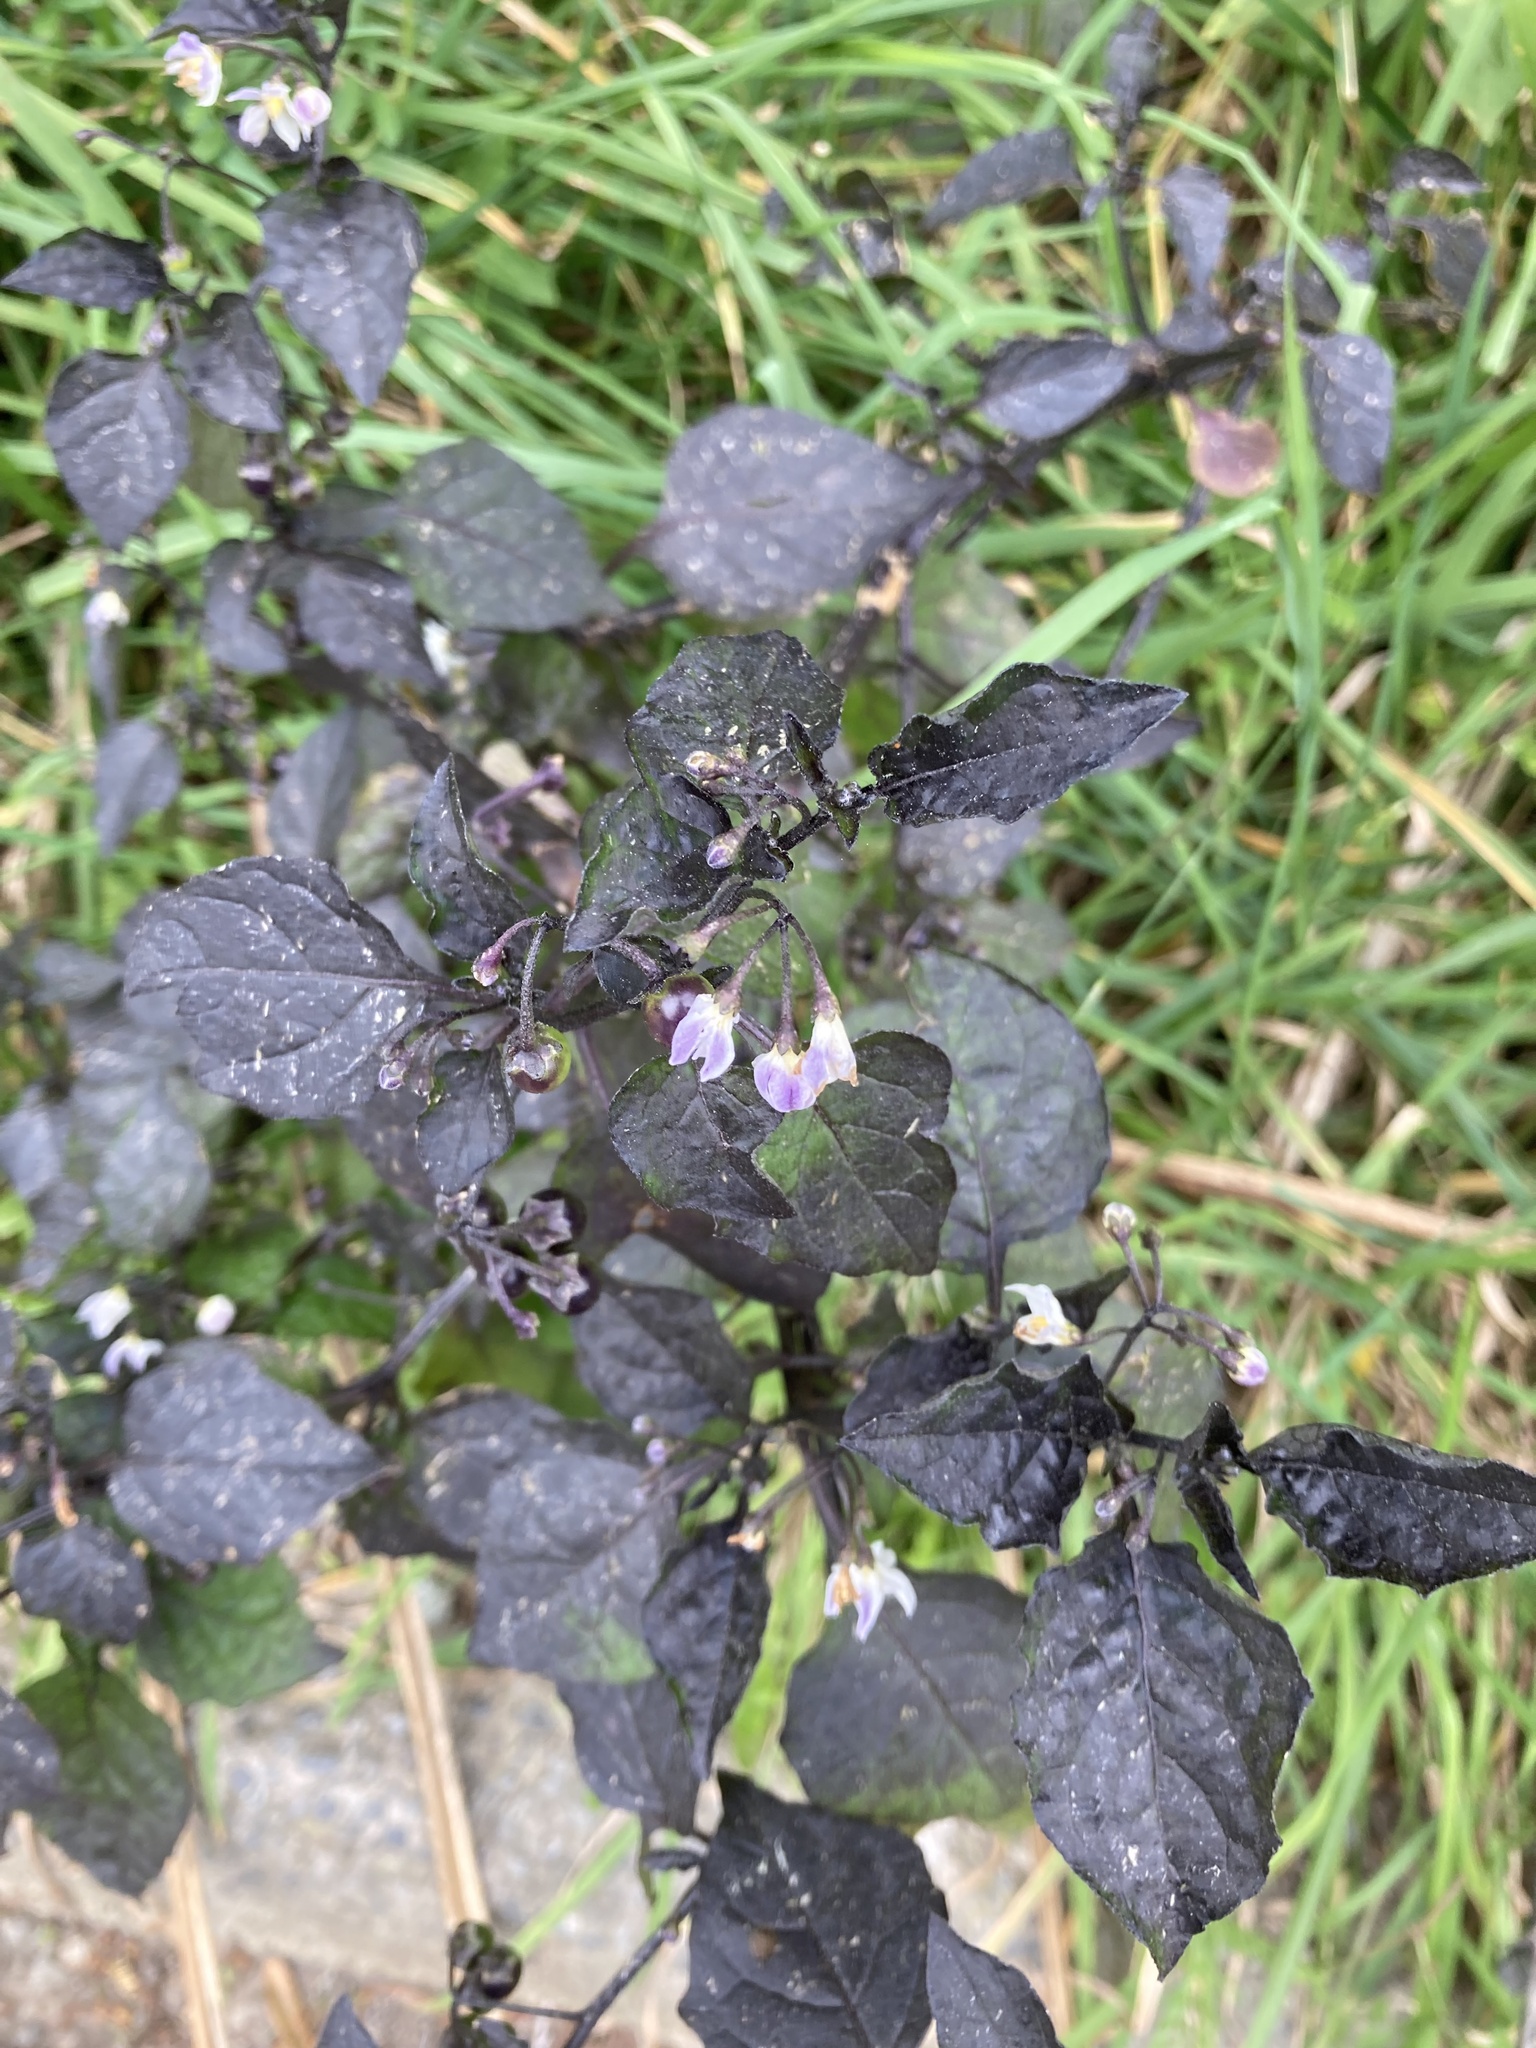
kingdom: Plantae
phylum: Tracheophyta
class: Magnoliopsida
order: Solanales
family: Solanaceae
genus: Solanum
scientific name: Solanum nigrum
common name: Black nightshade
